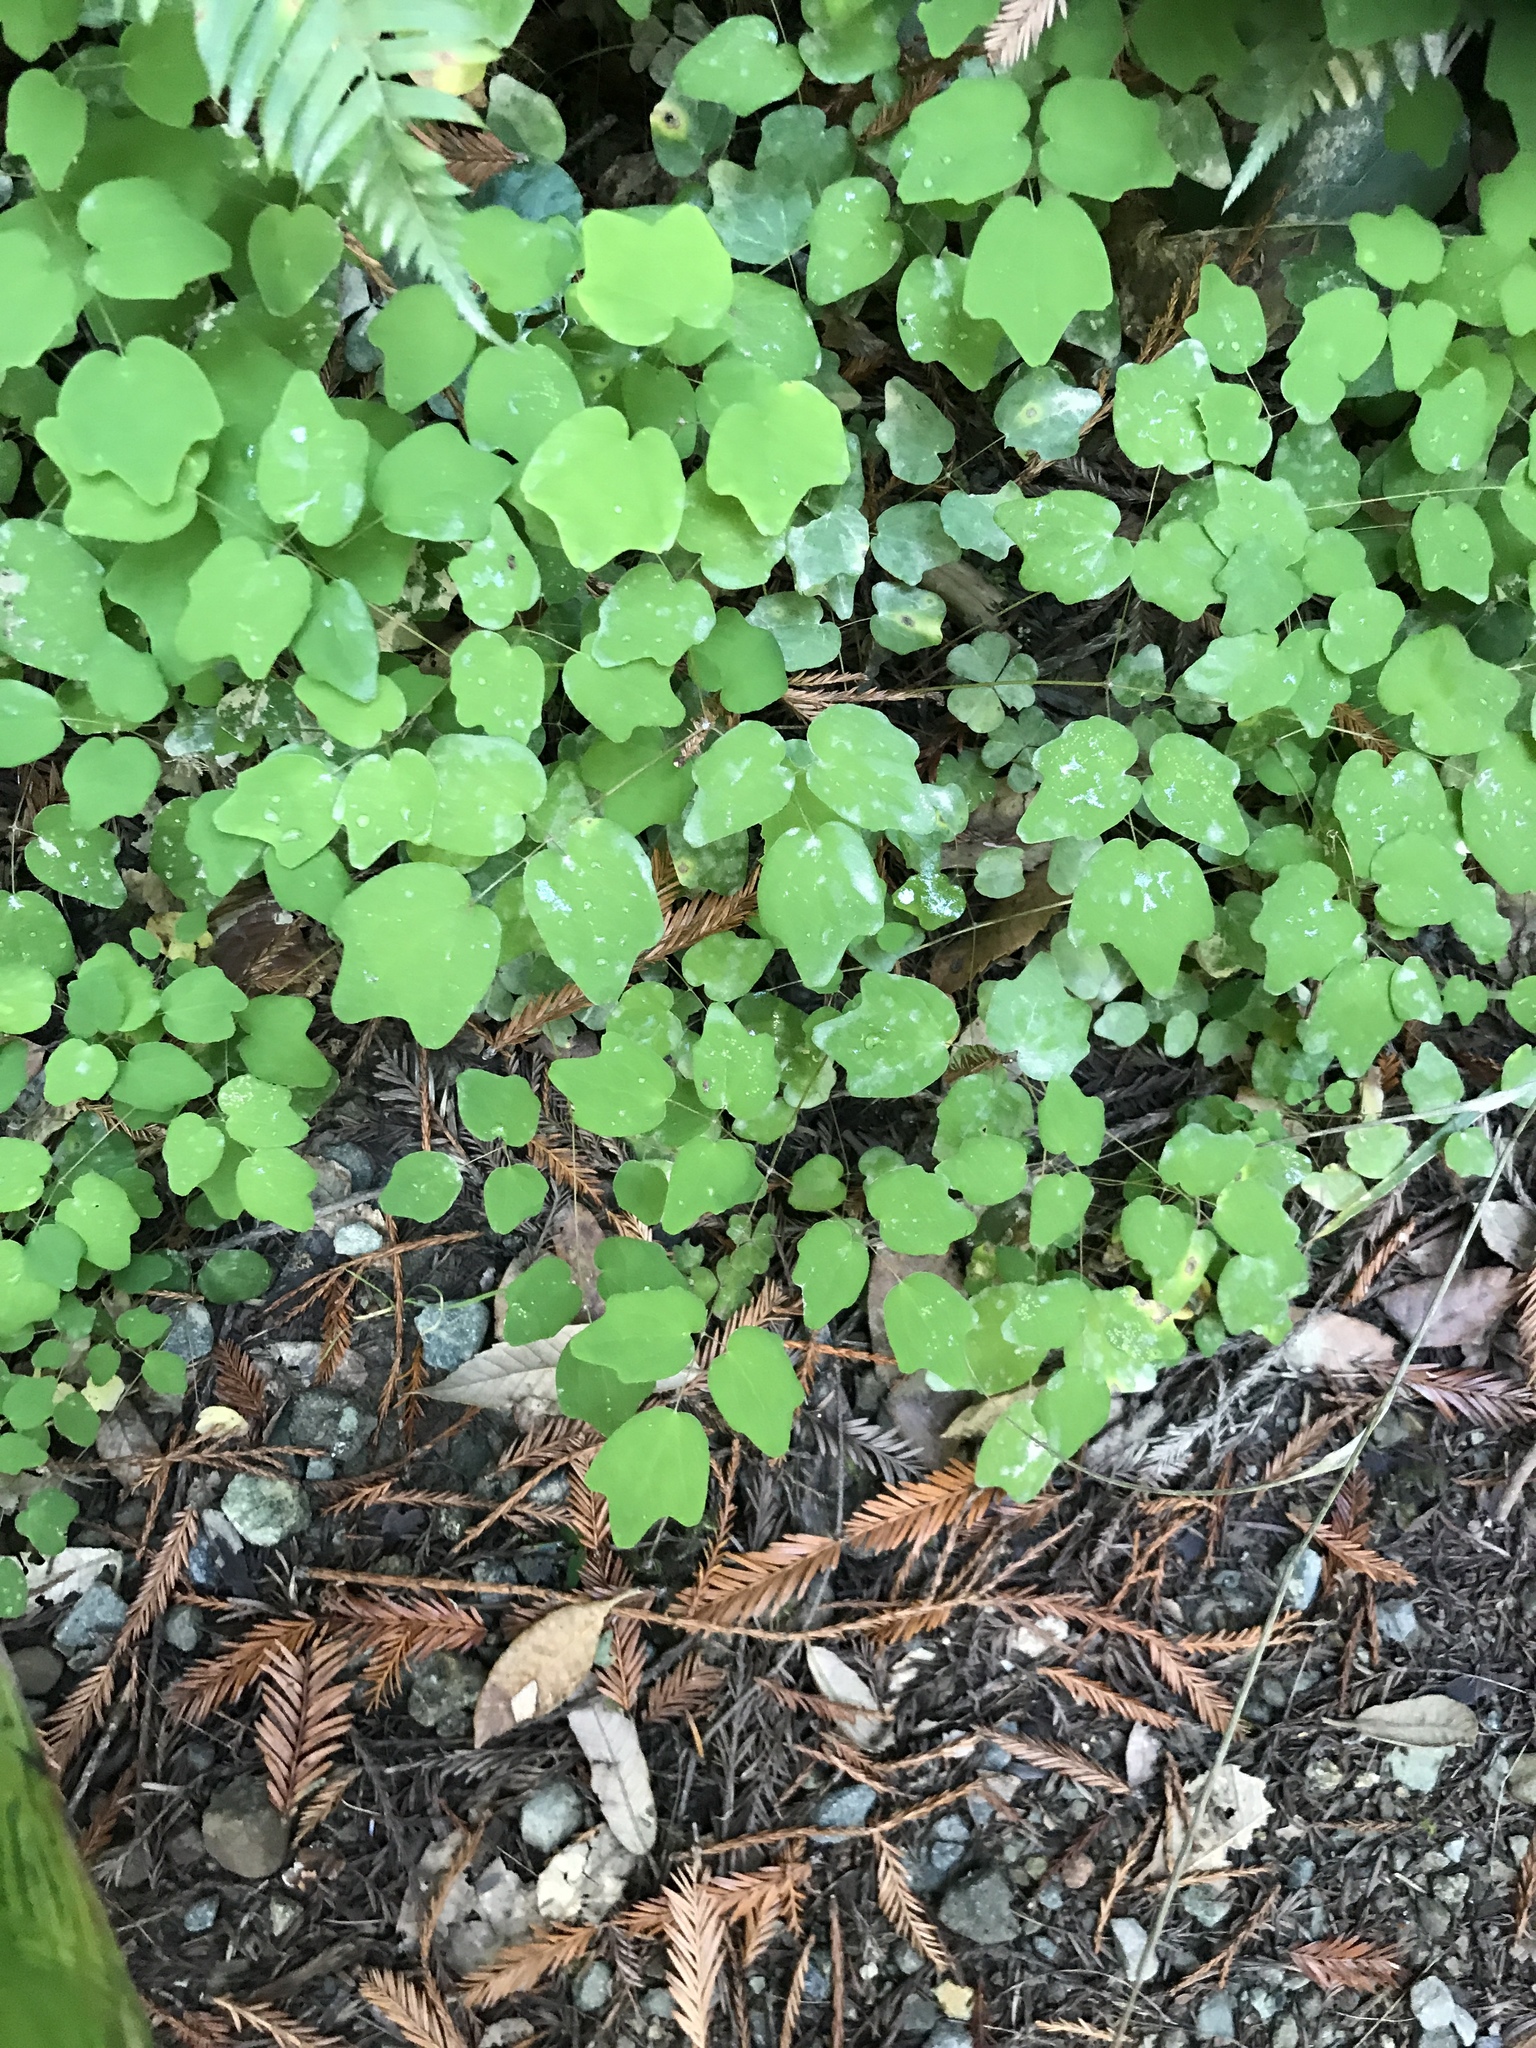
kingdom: Plantae
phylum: Tracheophyta
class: Magnoliopsida
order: Ranunculales
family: Berberidaceae
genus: Vancouveria
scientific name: Vancouveria hexandra
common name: Northern inside-out-flower
